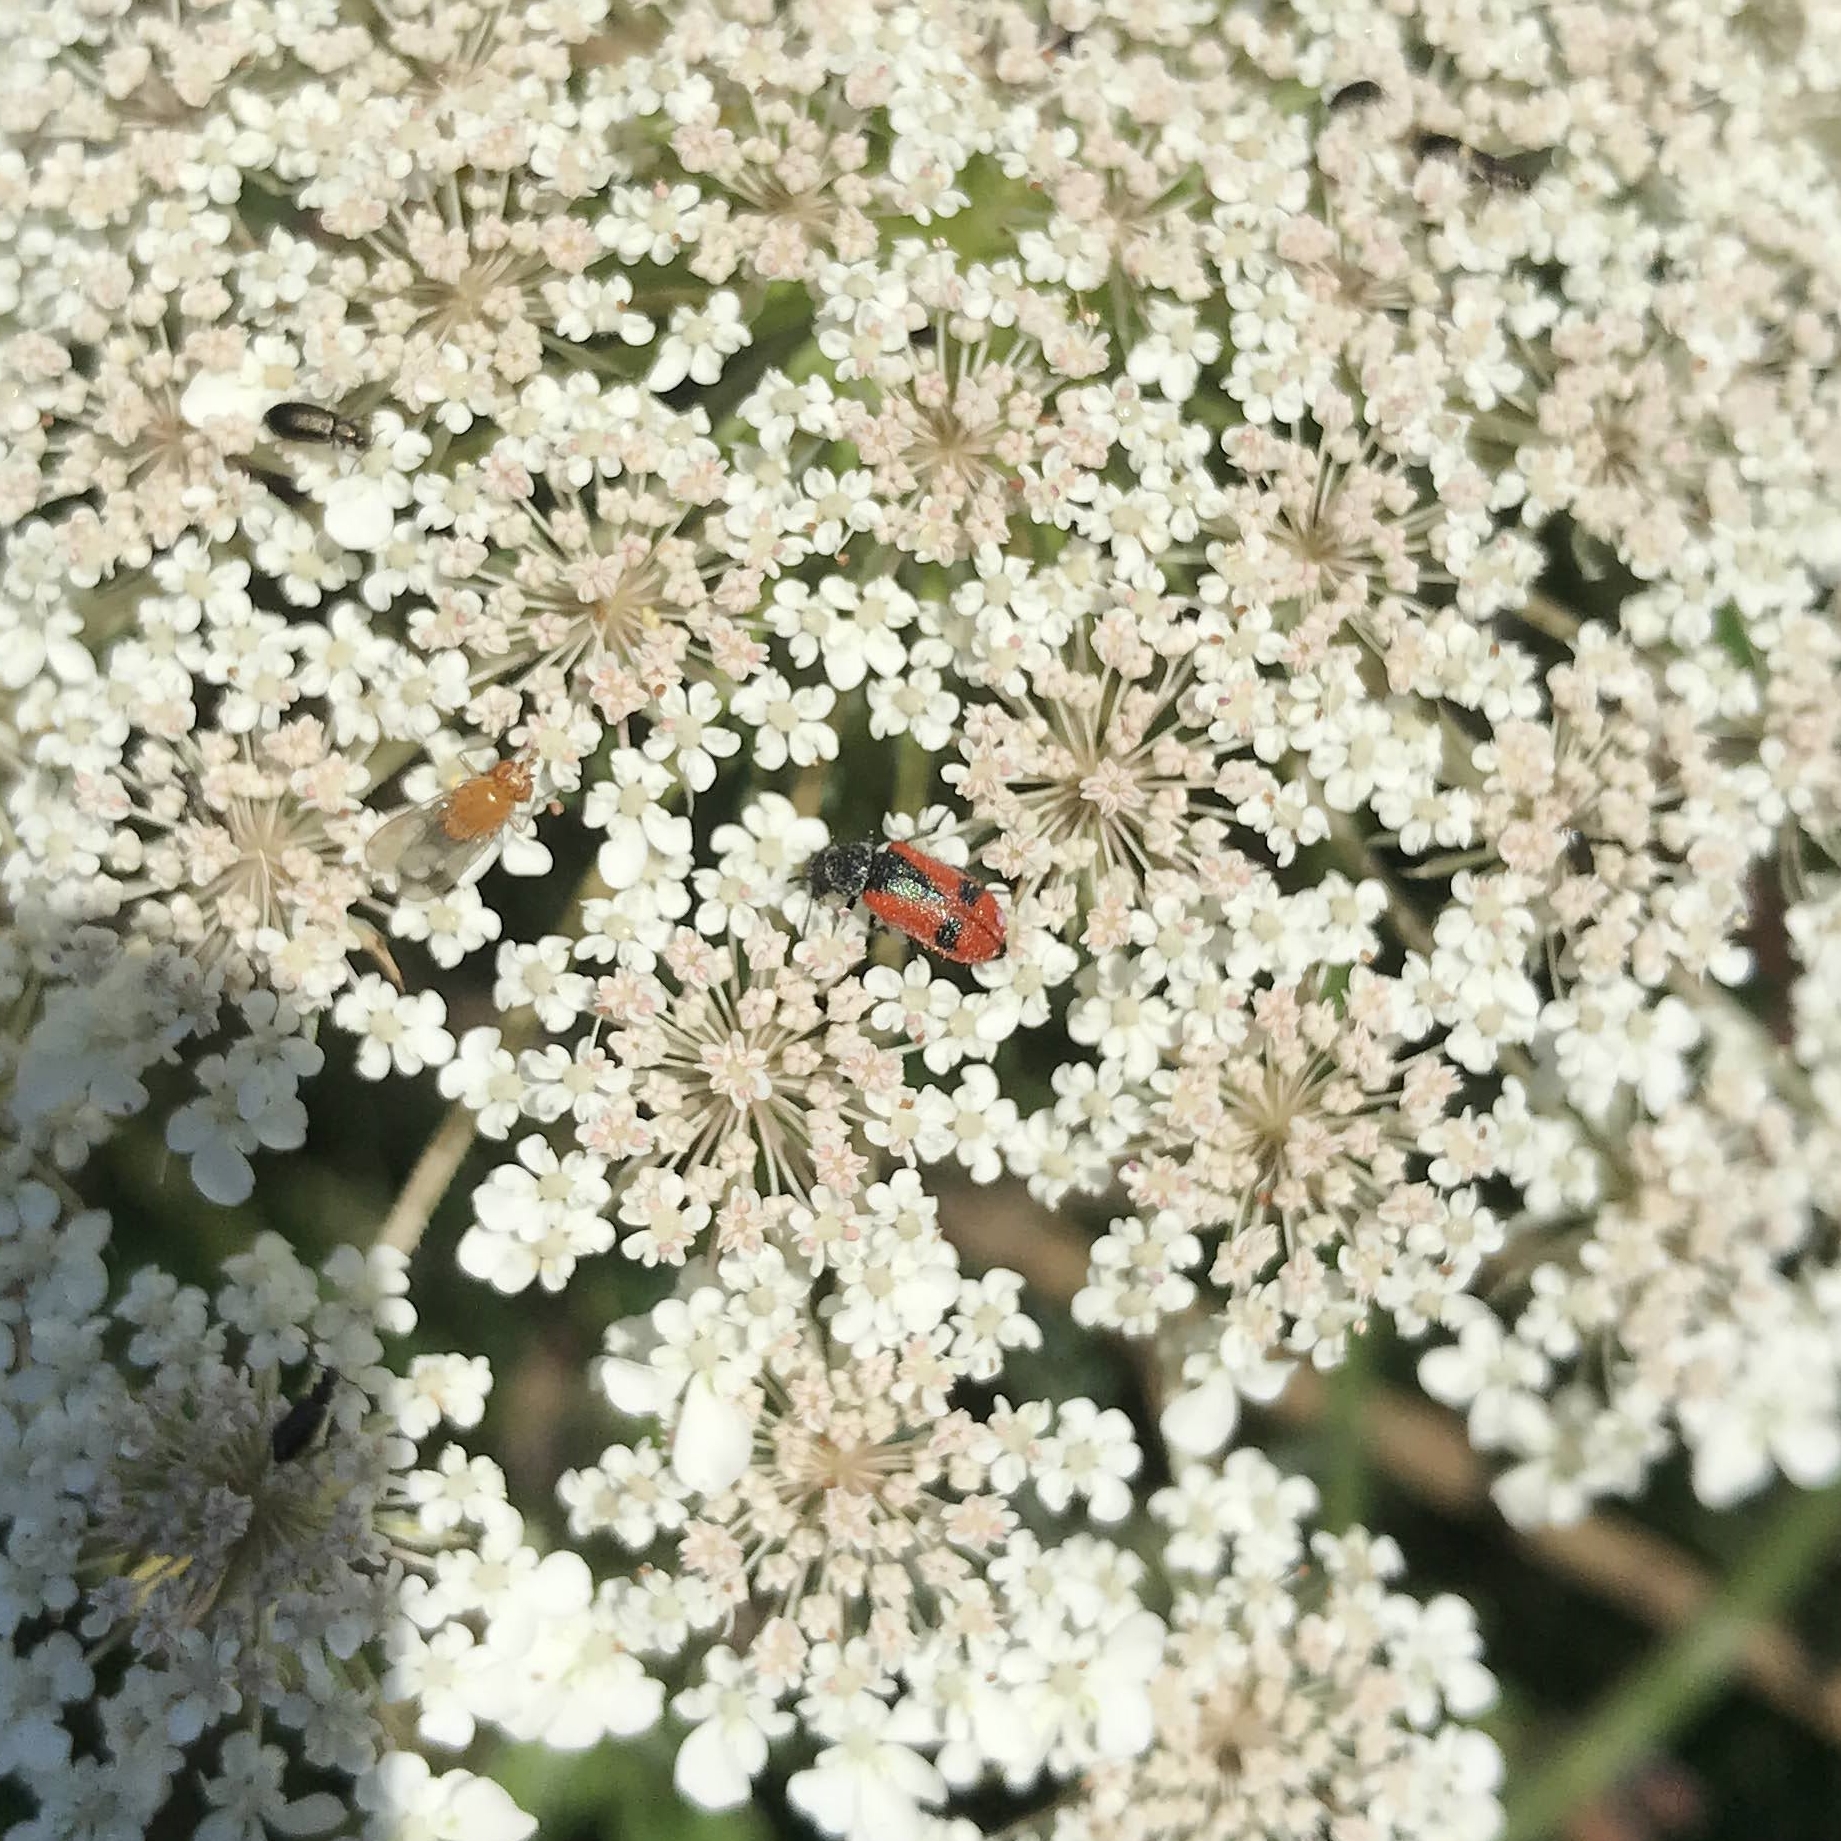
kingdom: Animalia
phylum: Arthropoda
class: Insecta
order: Coleoptera
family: Melyridae
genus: Arthrobrachus
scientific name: Arthrobrachus nigromaculatus
